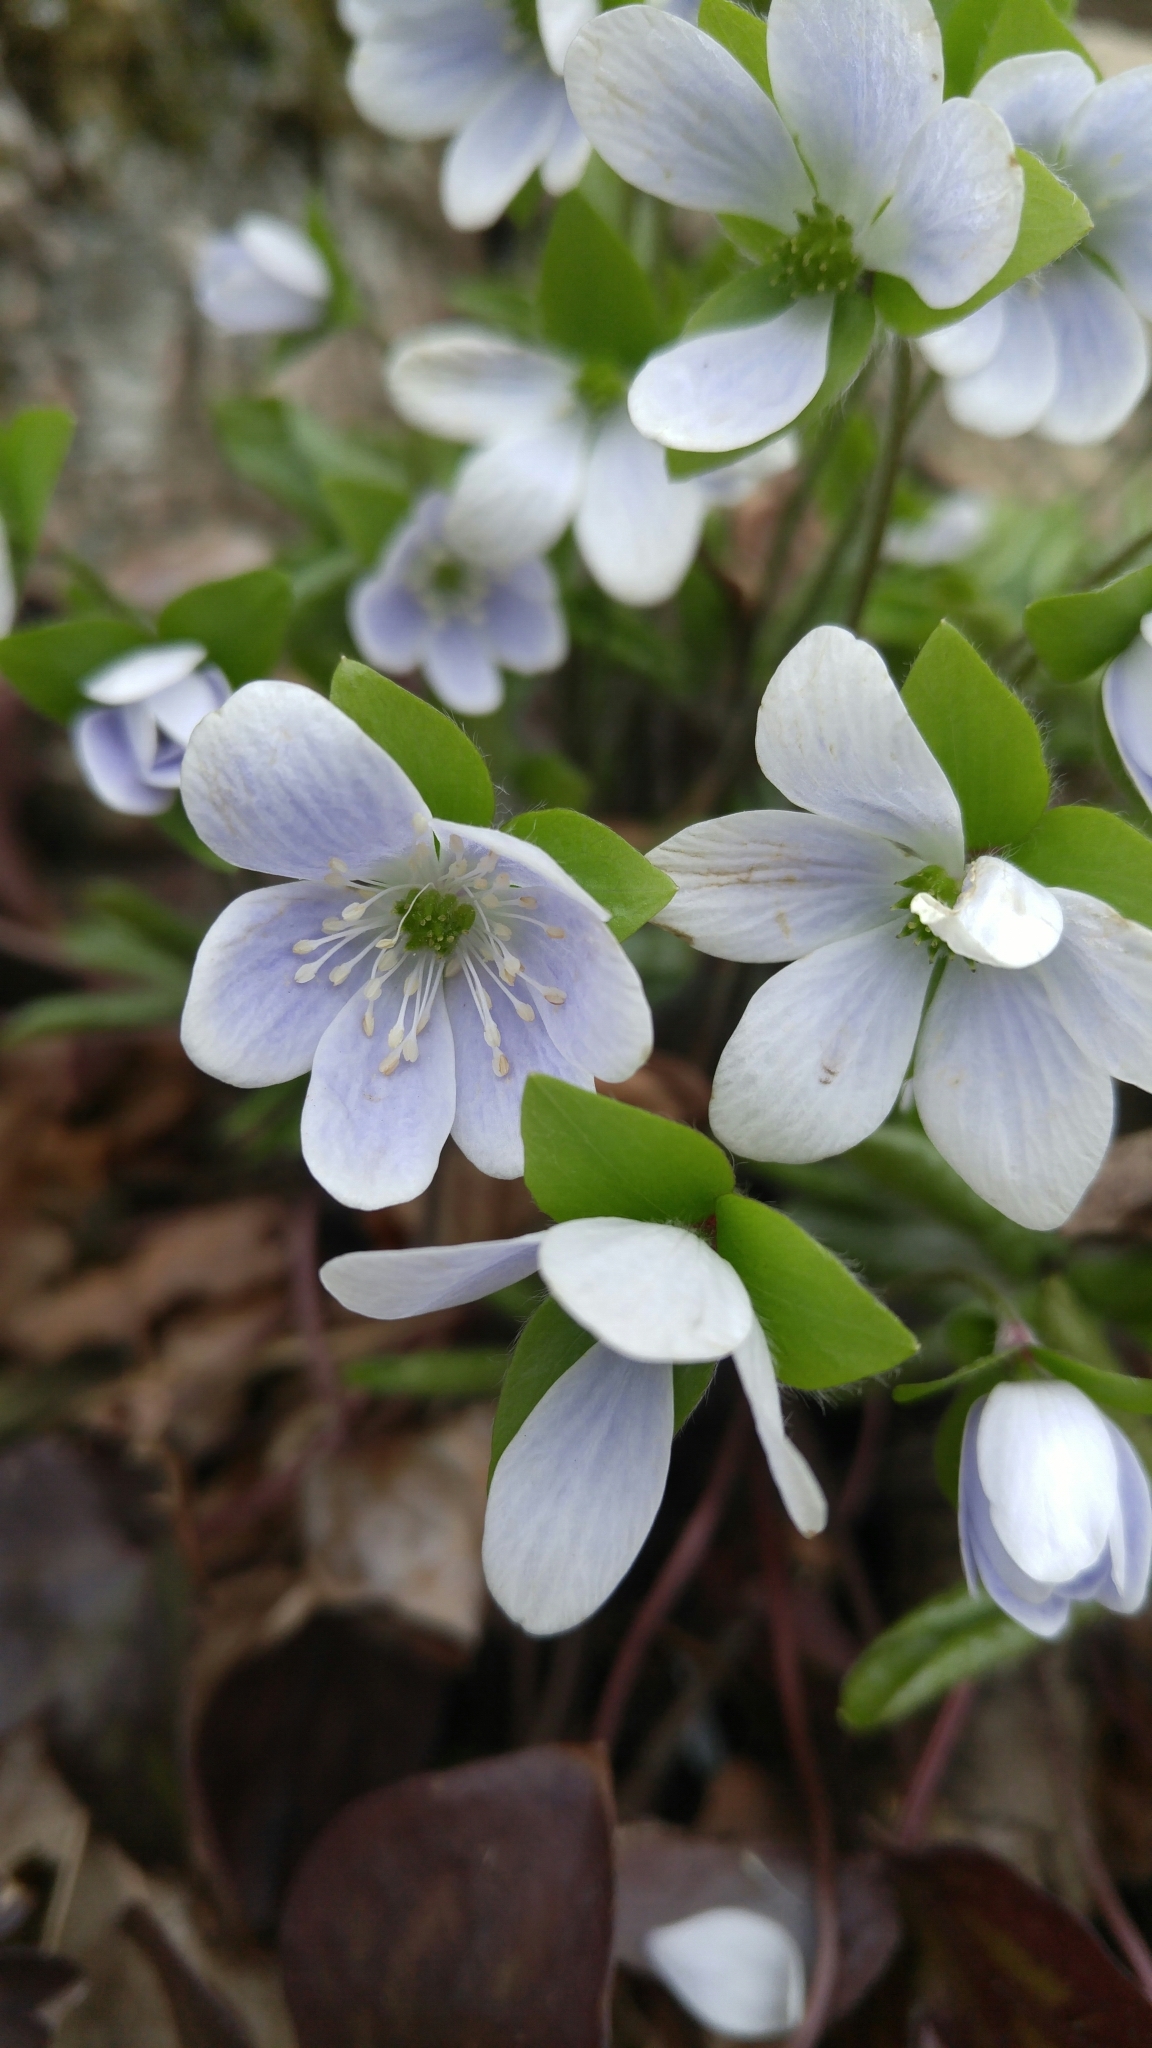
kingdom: Plantae
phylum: Tracheophyta
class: Magnoliopsida
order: Ranunculales
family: Ranunculaceae
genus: Hepatica
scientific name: Hepatica acutiloba
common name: Sharp-lobed hepatica
